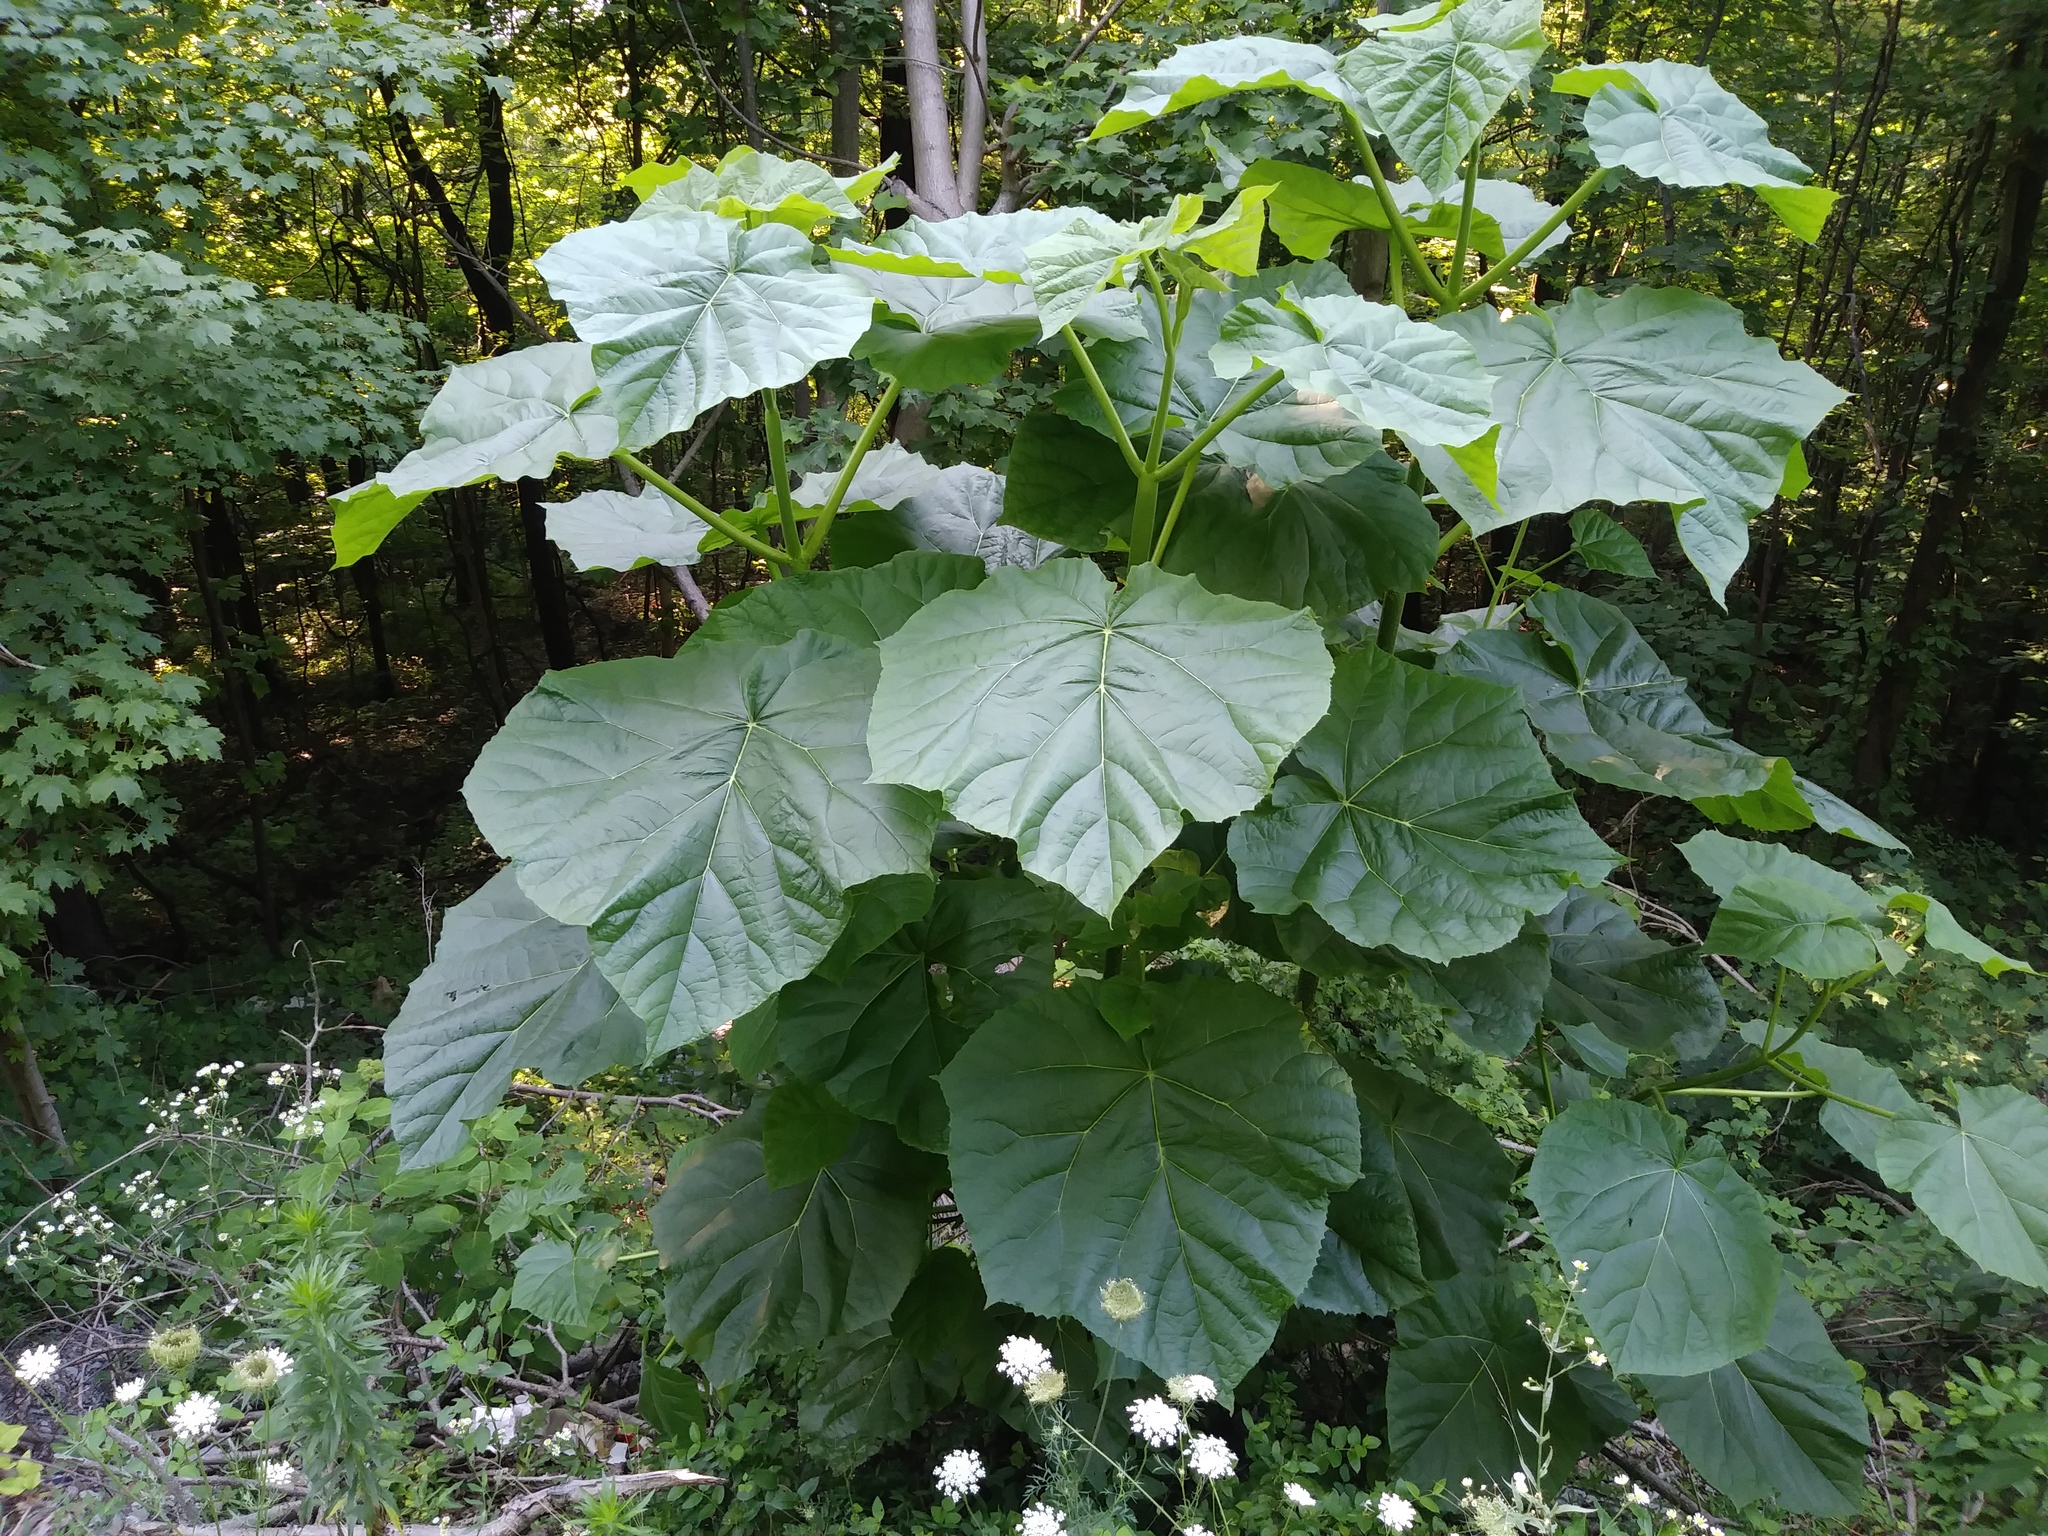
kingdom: Plantae
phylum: Tracheophyta
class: Magnoliopsida
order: Lamiales
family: Paulowniaceae
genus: Paulownia
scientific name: Paulownia tomentosa
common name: Foxglove-tree
